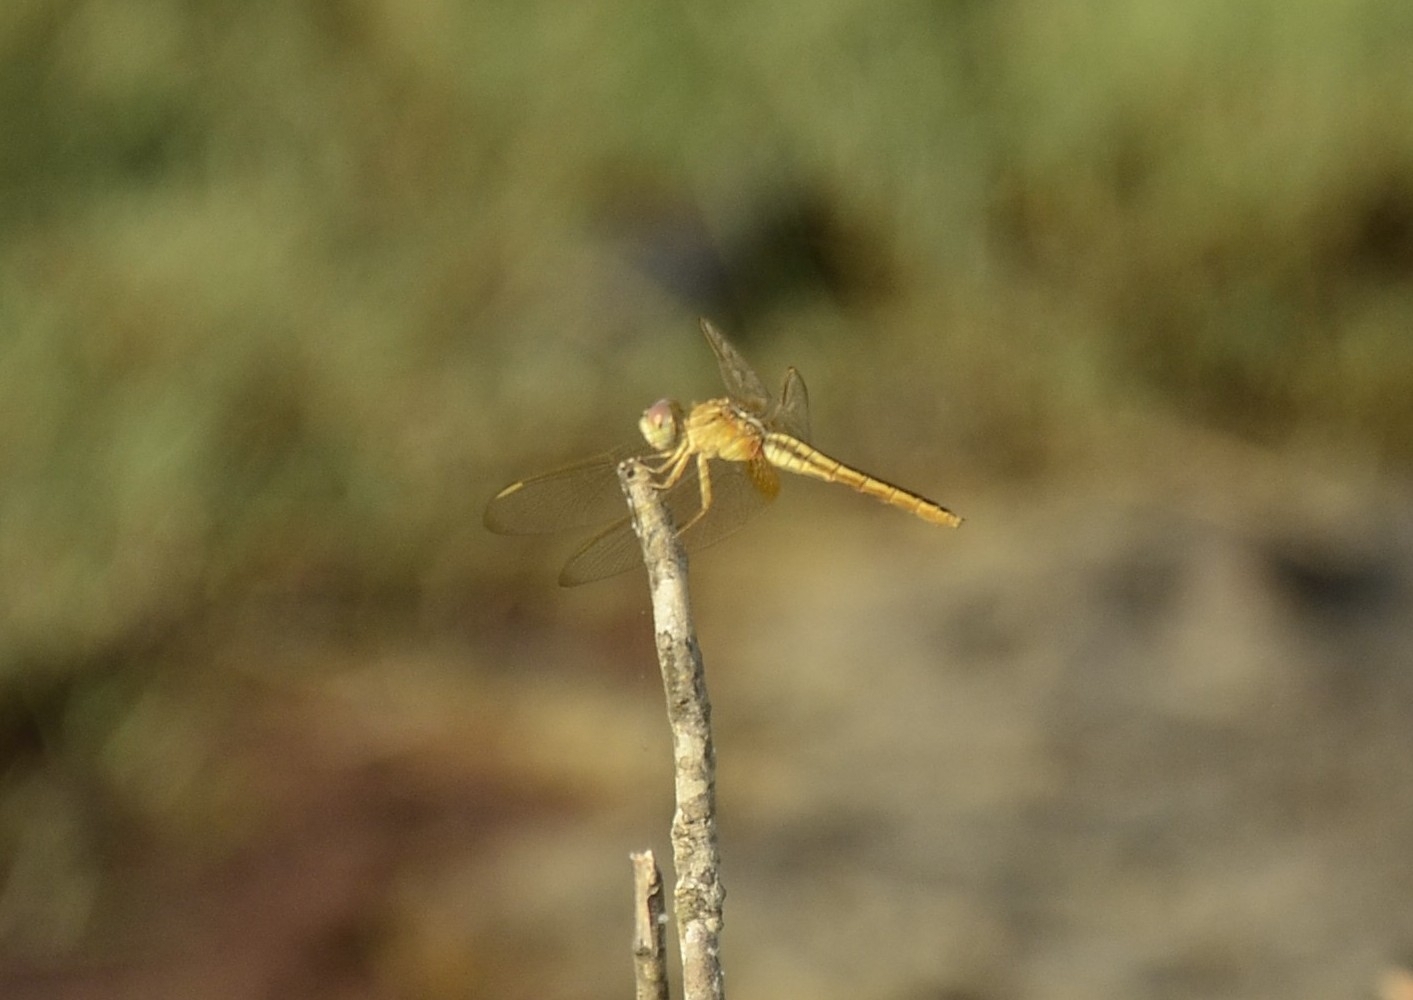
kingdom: Animalia
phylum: Arthropoda
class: Insecta
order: Odonata
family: Libellulidae
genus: Crocothemis
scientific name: Crocothemis servilia
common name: Scarlet skimmer
